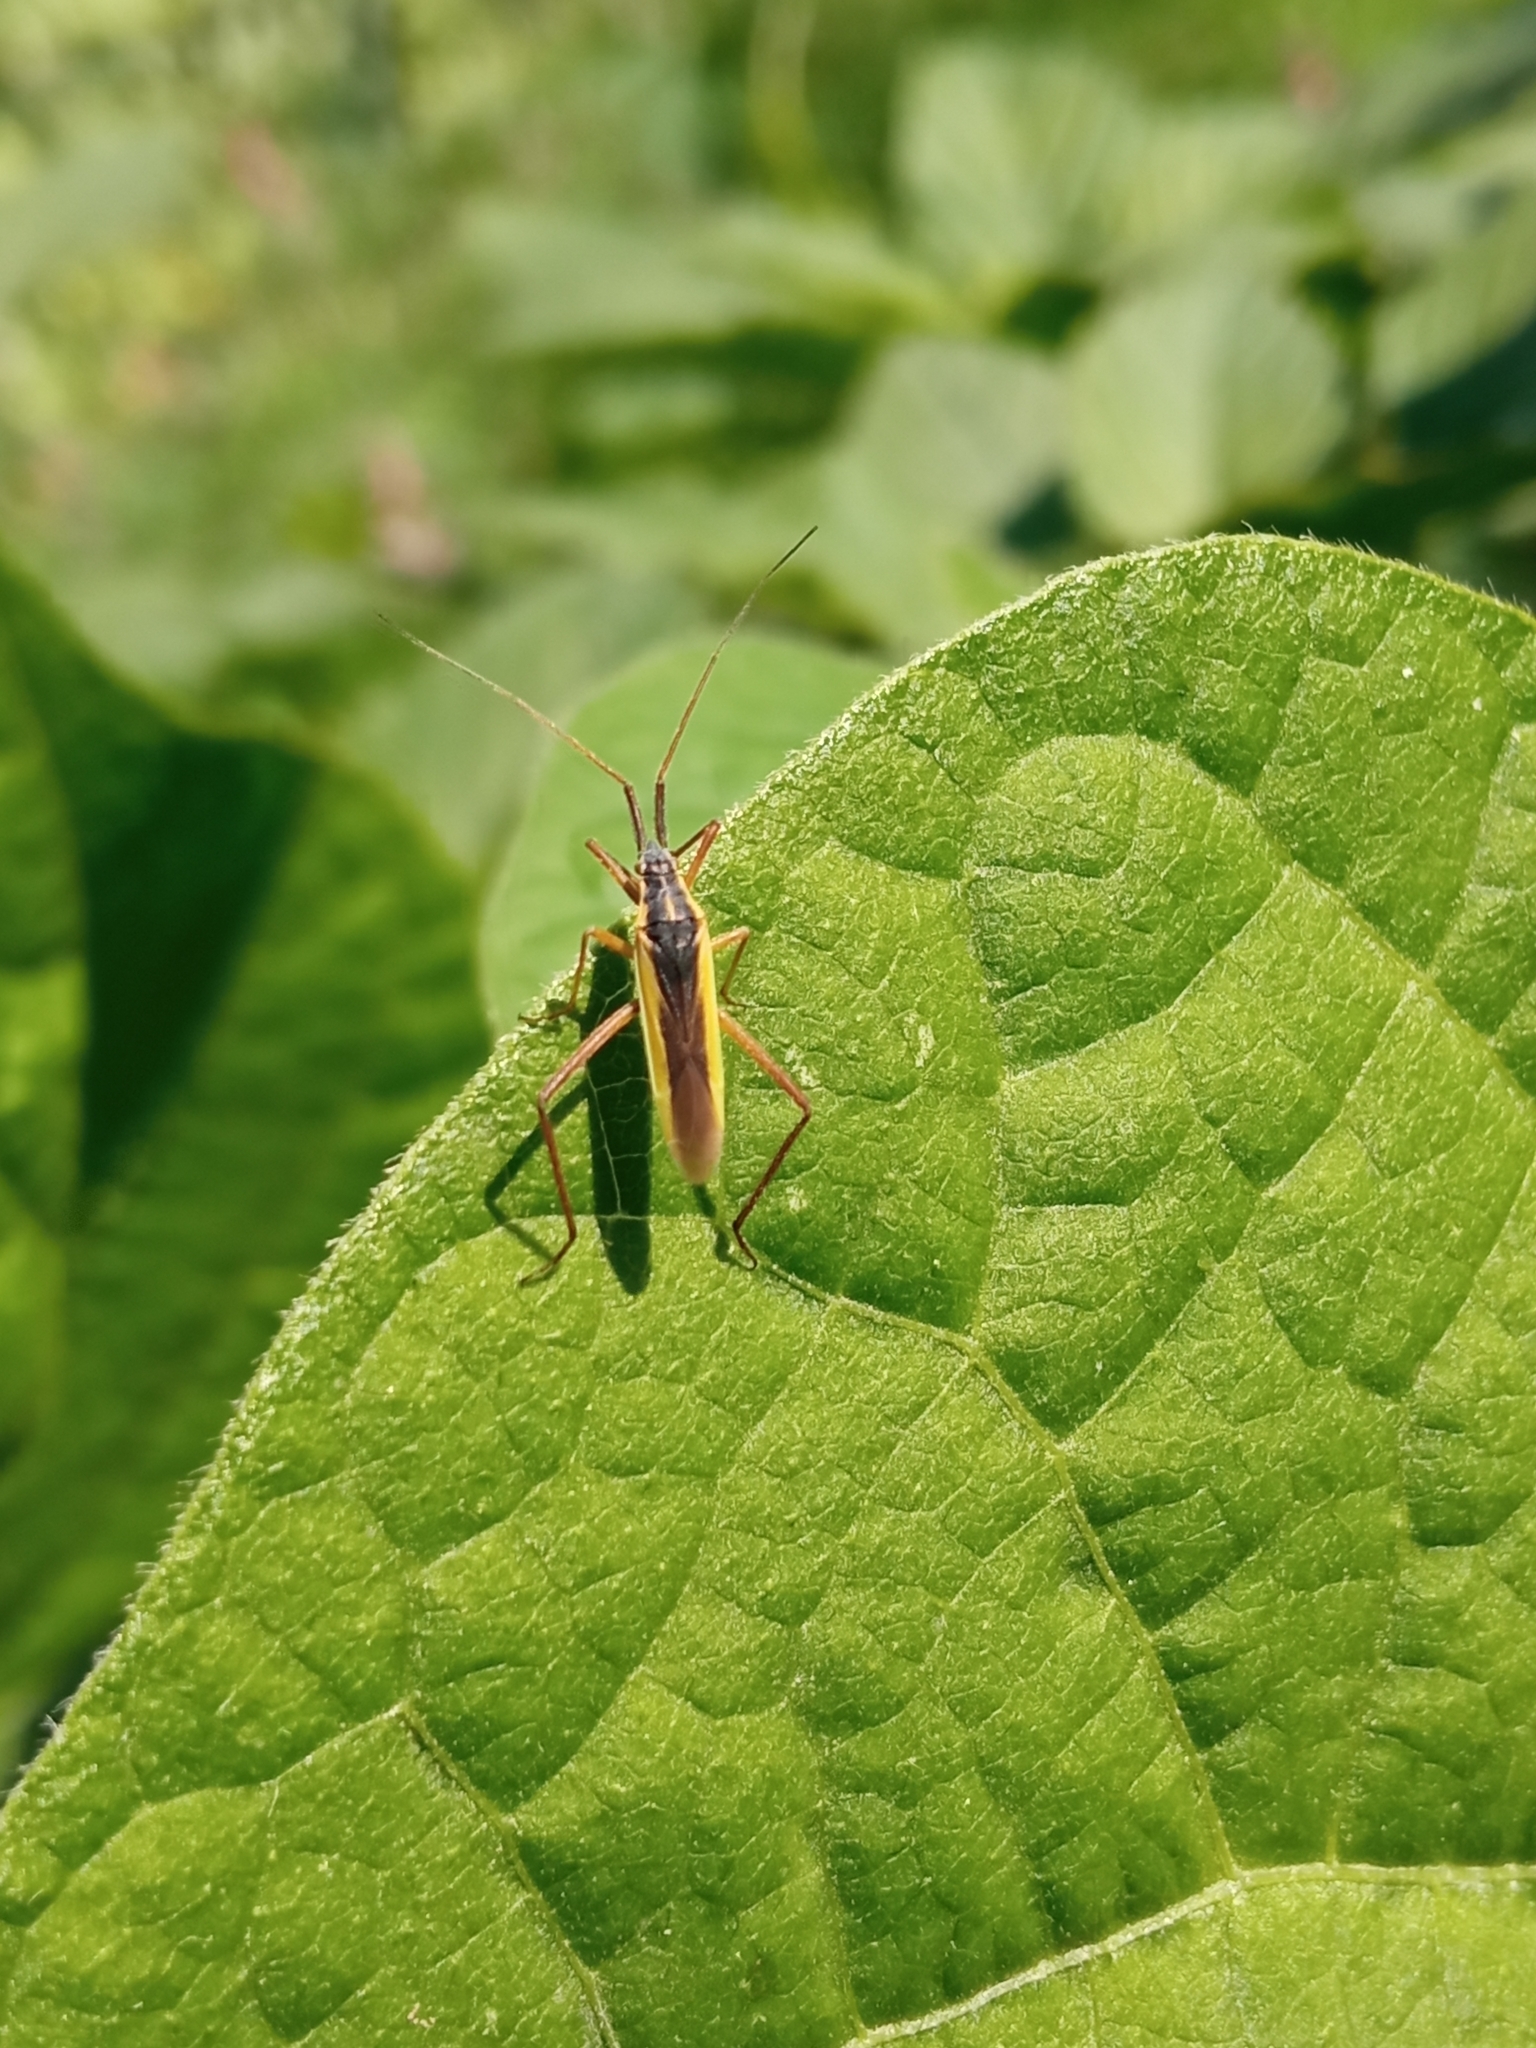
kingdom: Animalia
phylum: Arthropoda
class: Insecta
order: Hemiptera
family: Miridae
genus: Notostira
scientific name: Notostira
